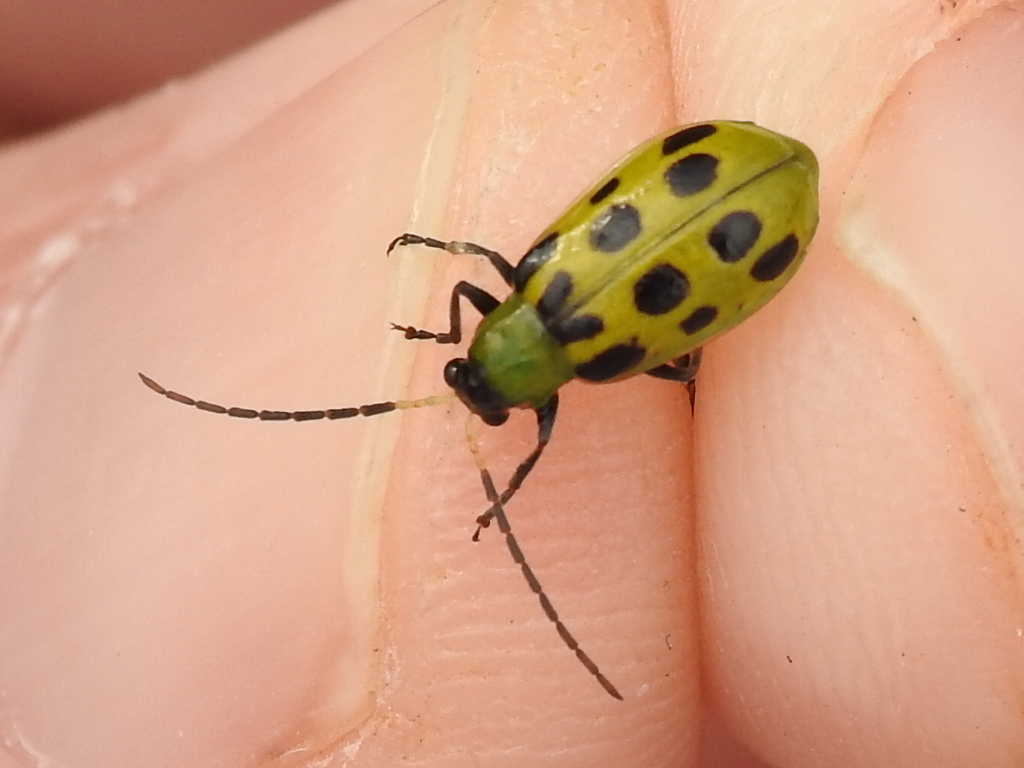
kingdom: Animalia
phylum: Arthropoda
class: Insecta
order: Coleoptera
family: Chrysomelidae
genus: Diabrotica
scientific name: Diabrotica undecimpunctata
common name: Spotted cucumber beetle
